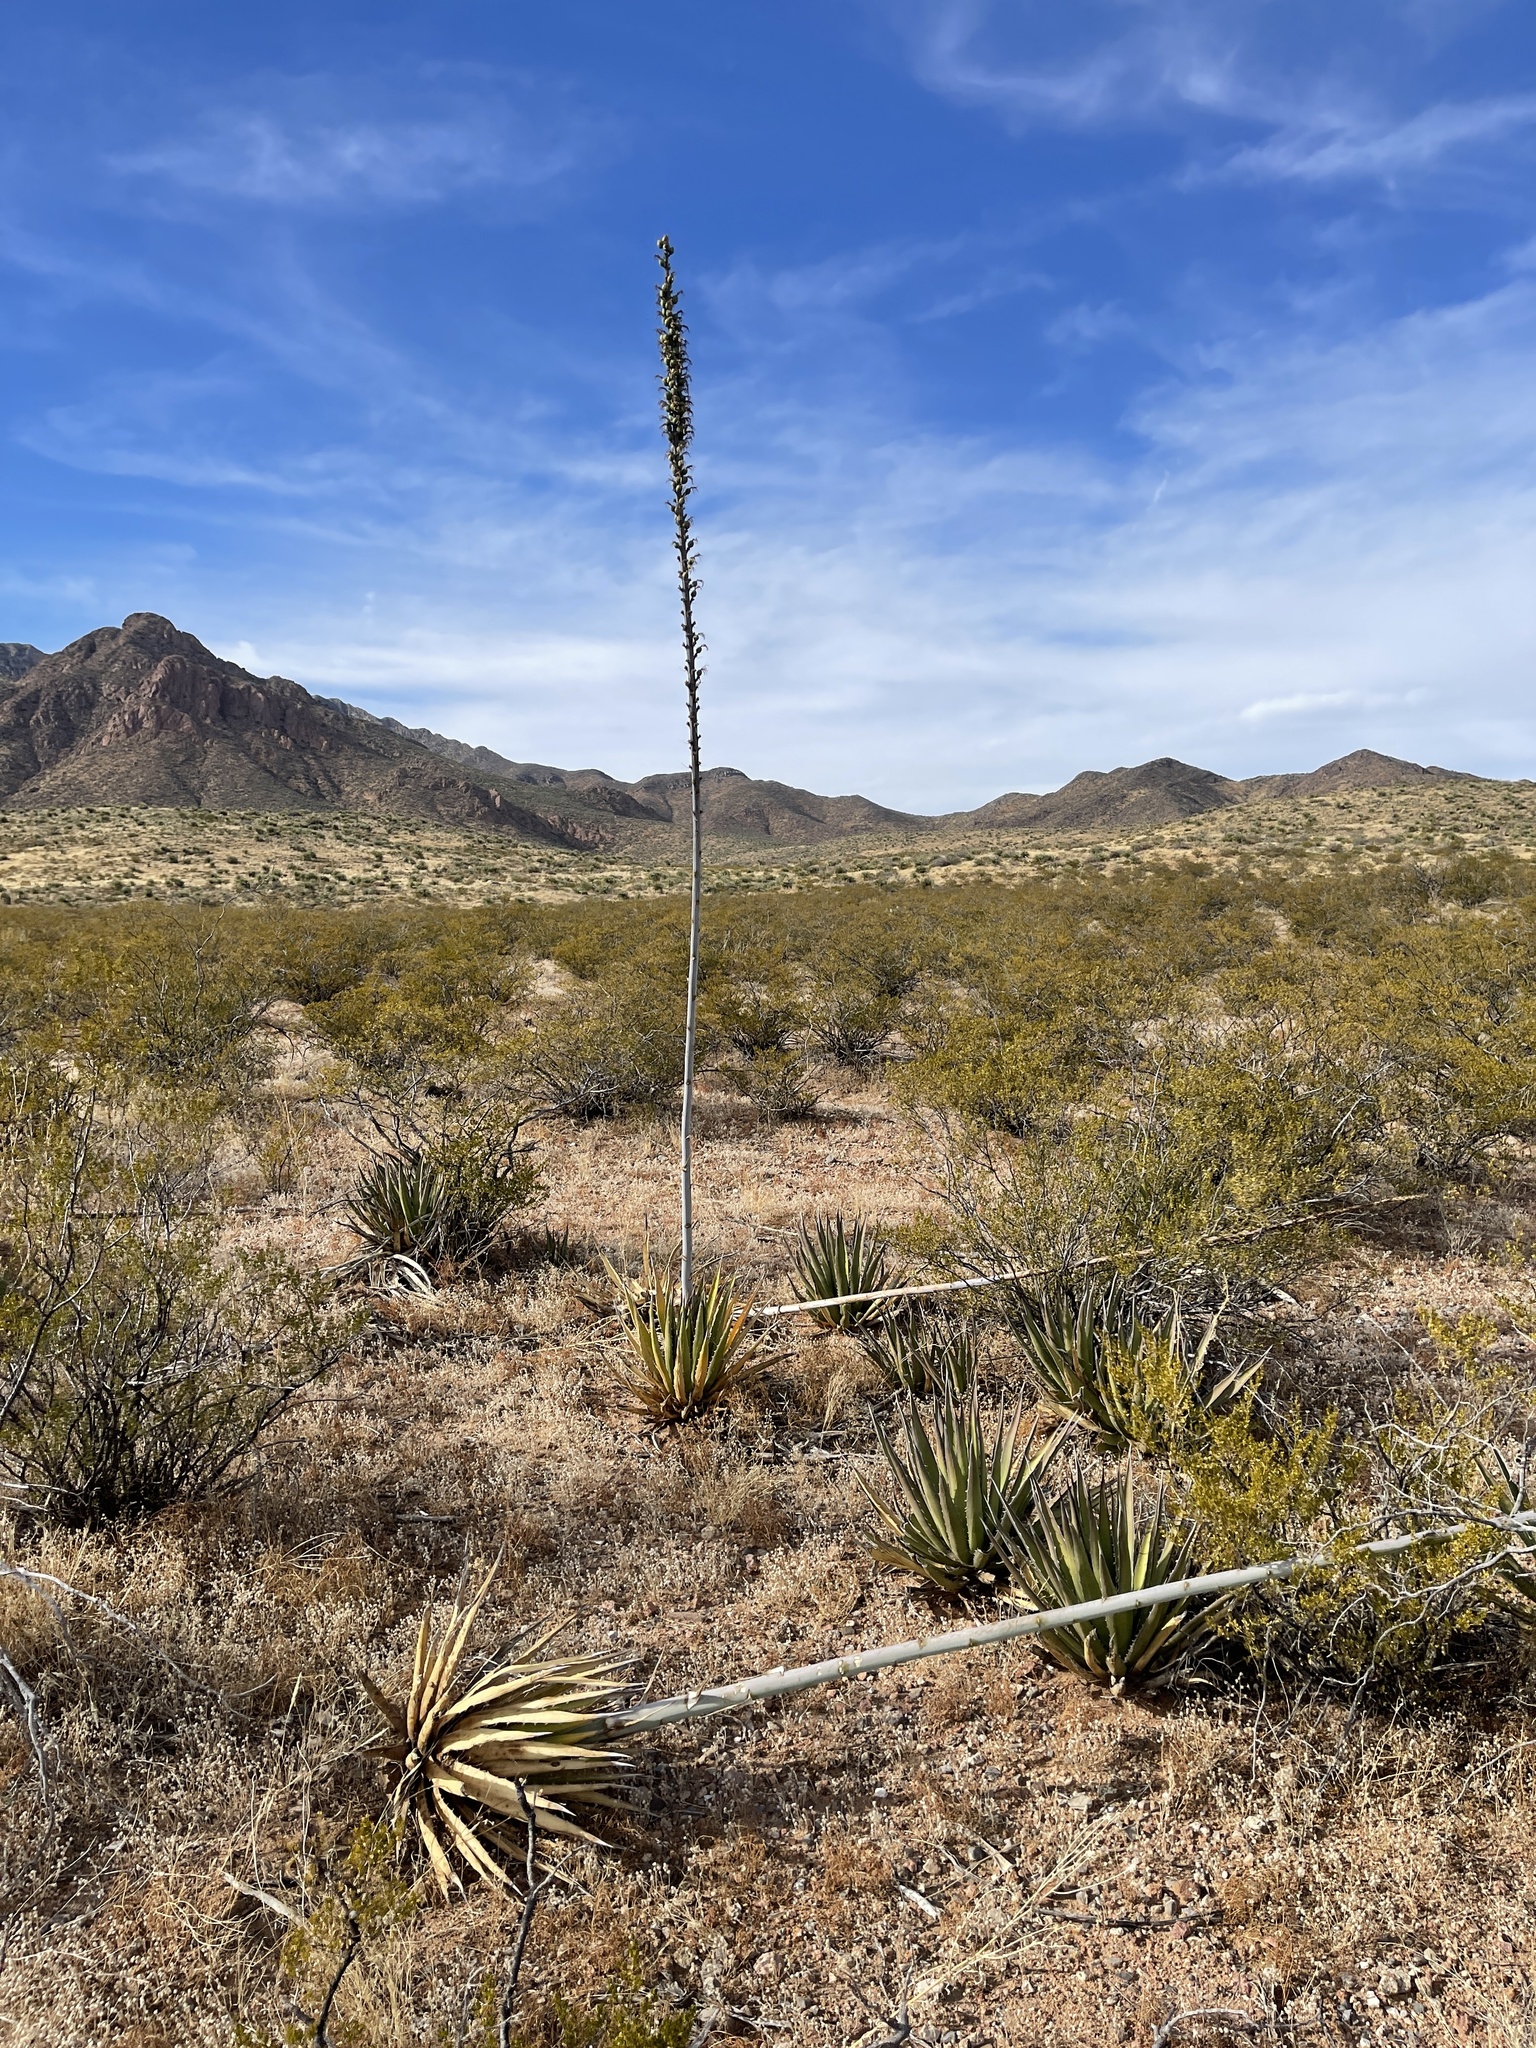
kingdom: Plantae
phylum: Tracheophyta
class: Liliopsida
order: Asparagales
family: Asparagaceae
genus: Agave
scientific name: Agave lechuguilla
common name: Lecheguilla agave
